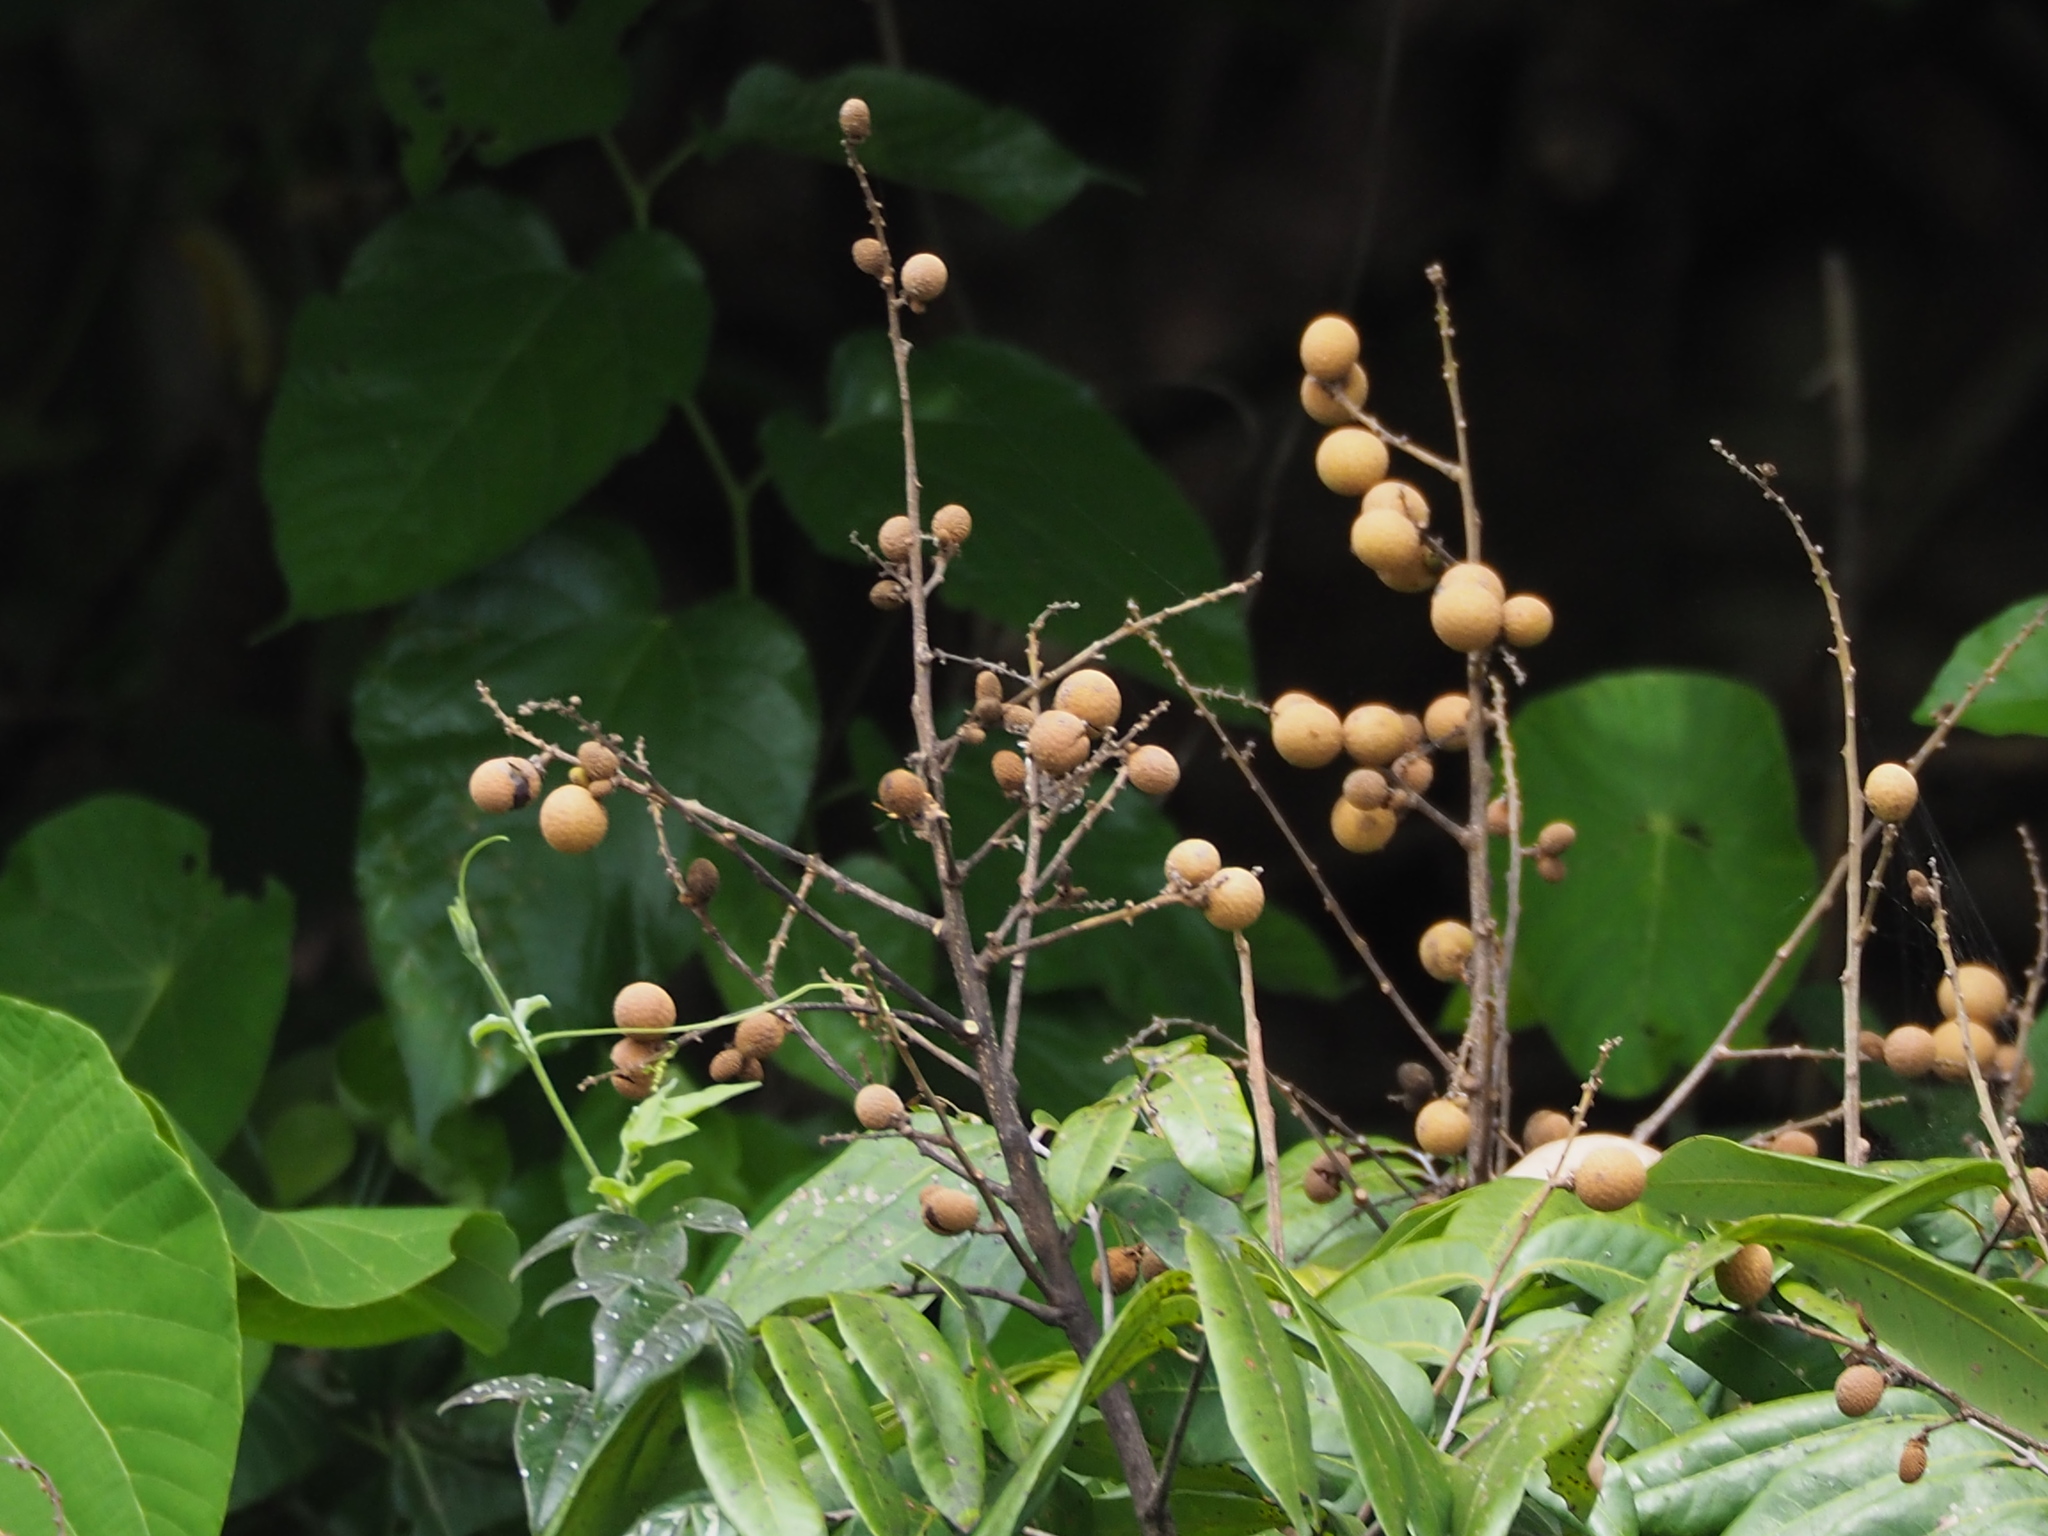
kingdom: Plantae
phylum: Tracheophyta
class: Magnoliopsida
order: Sapindales
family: Sapindaceae
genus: Dimocarpus
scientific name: Dimocarpus longan
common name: Longan
